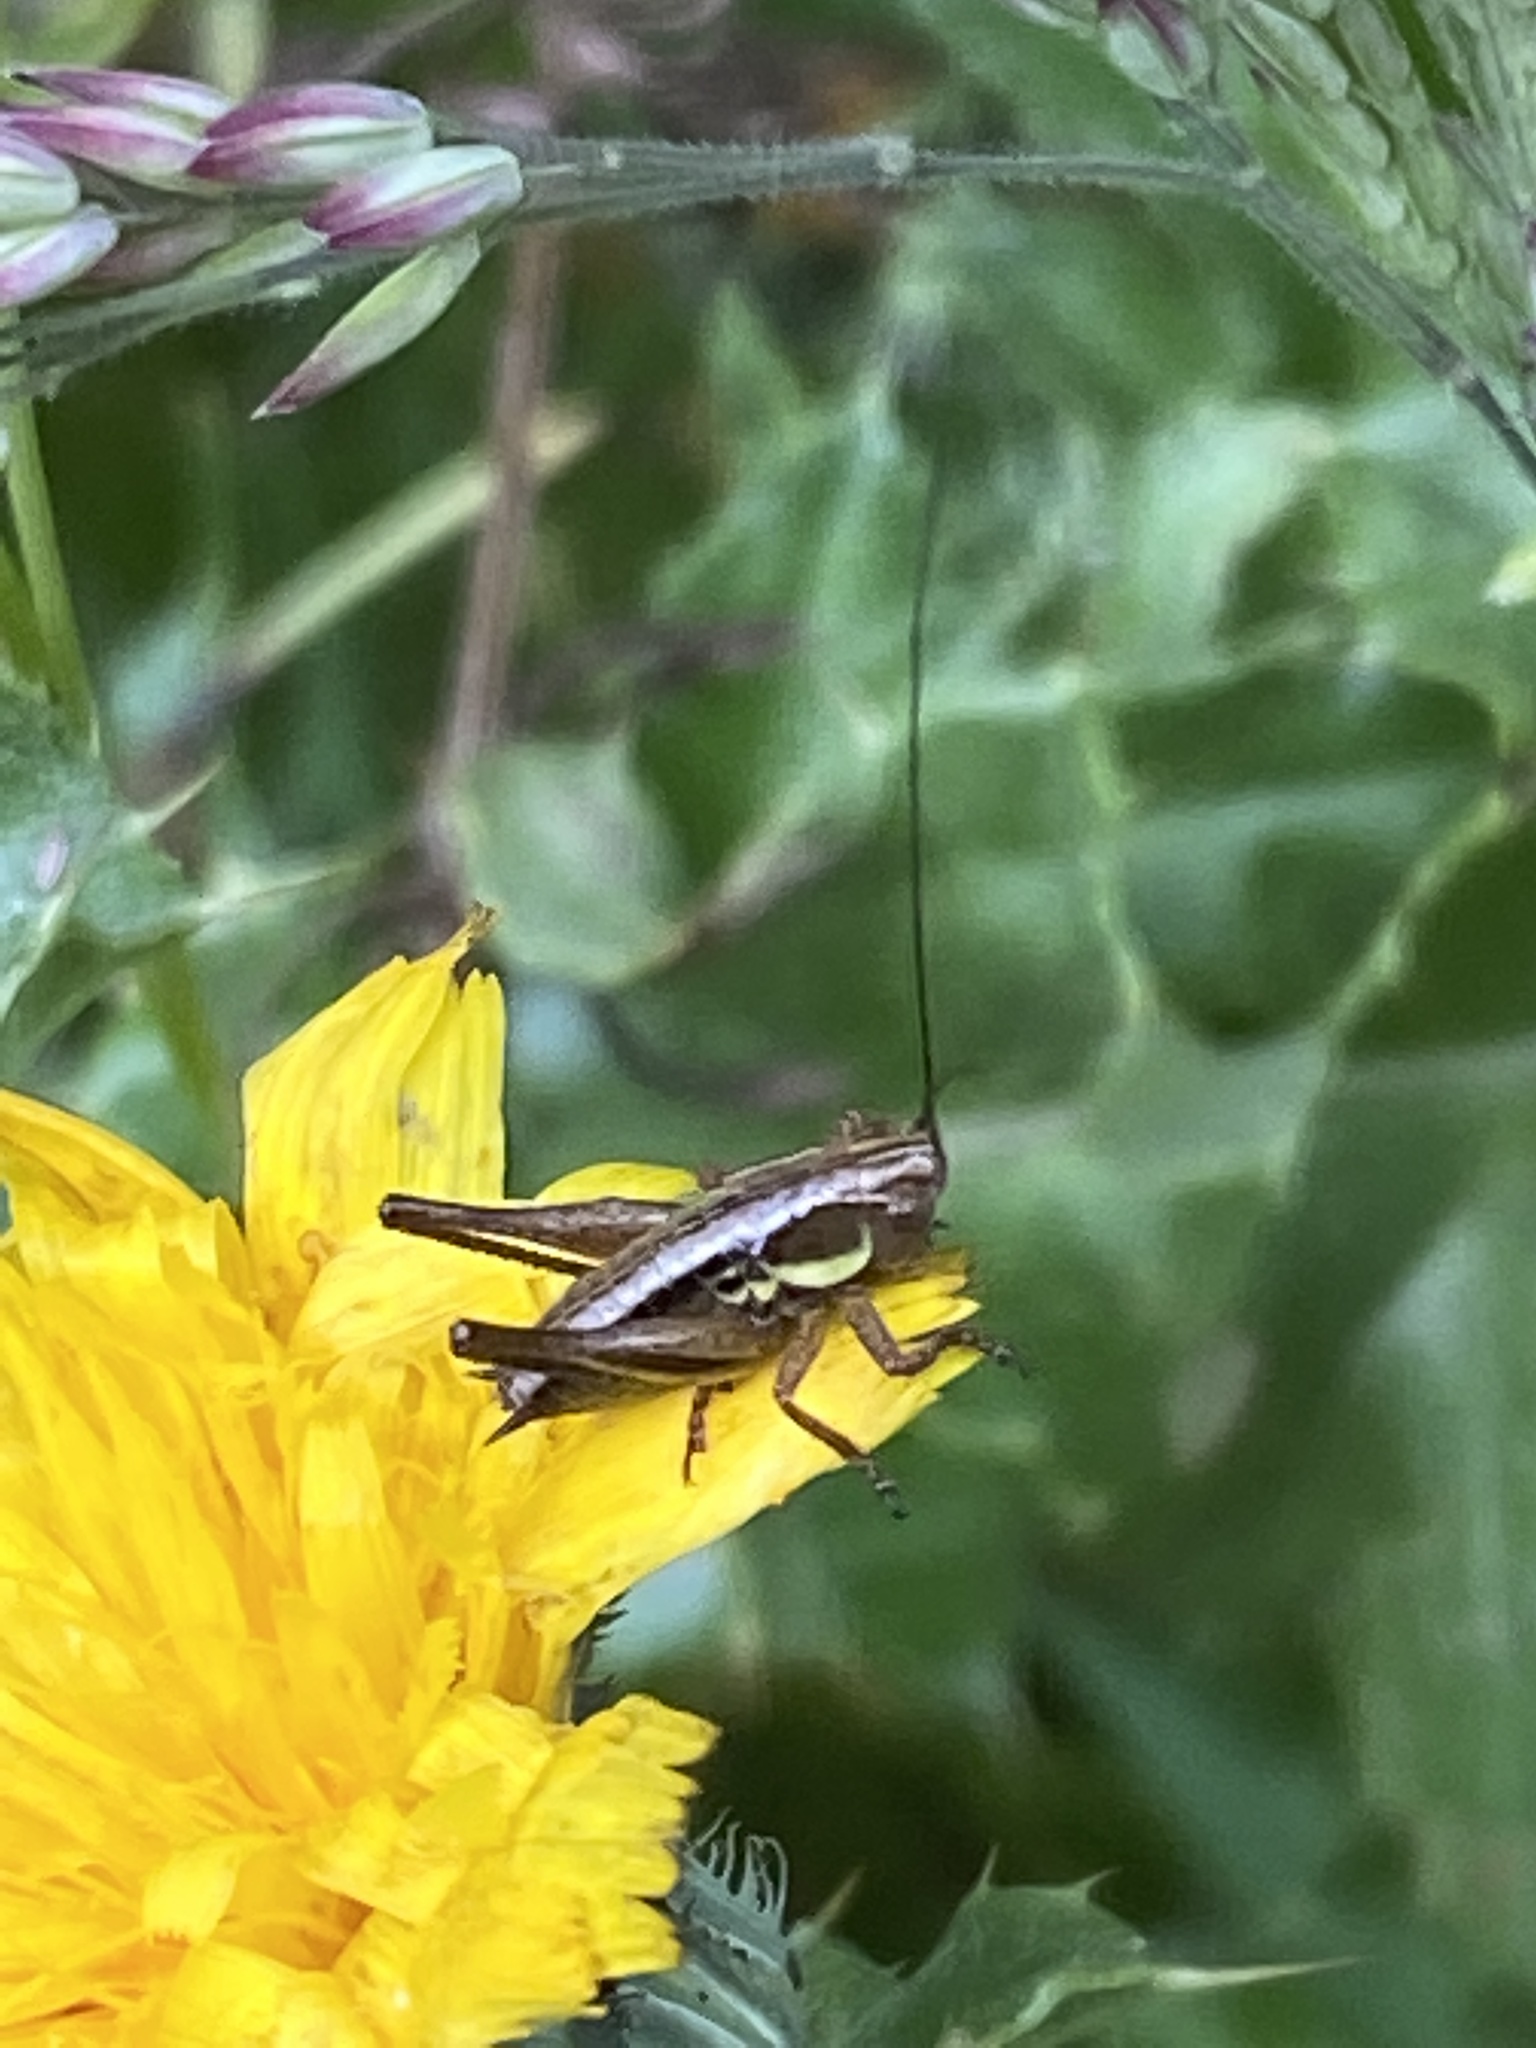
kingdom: Animalia
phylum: Arthropoda
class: Insecta
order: Orthoptera
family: Tettigoniidae
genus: Roeseliana
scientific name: Roeseliana roeselii
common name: Roesel's bush cricket
